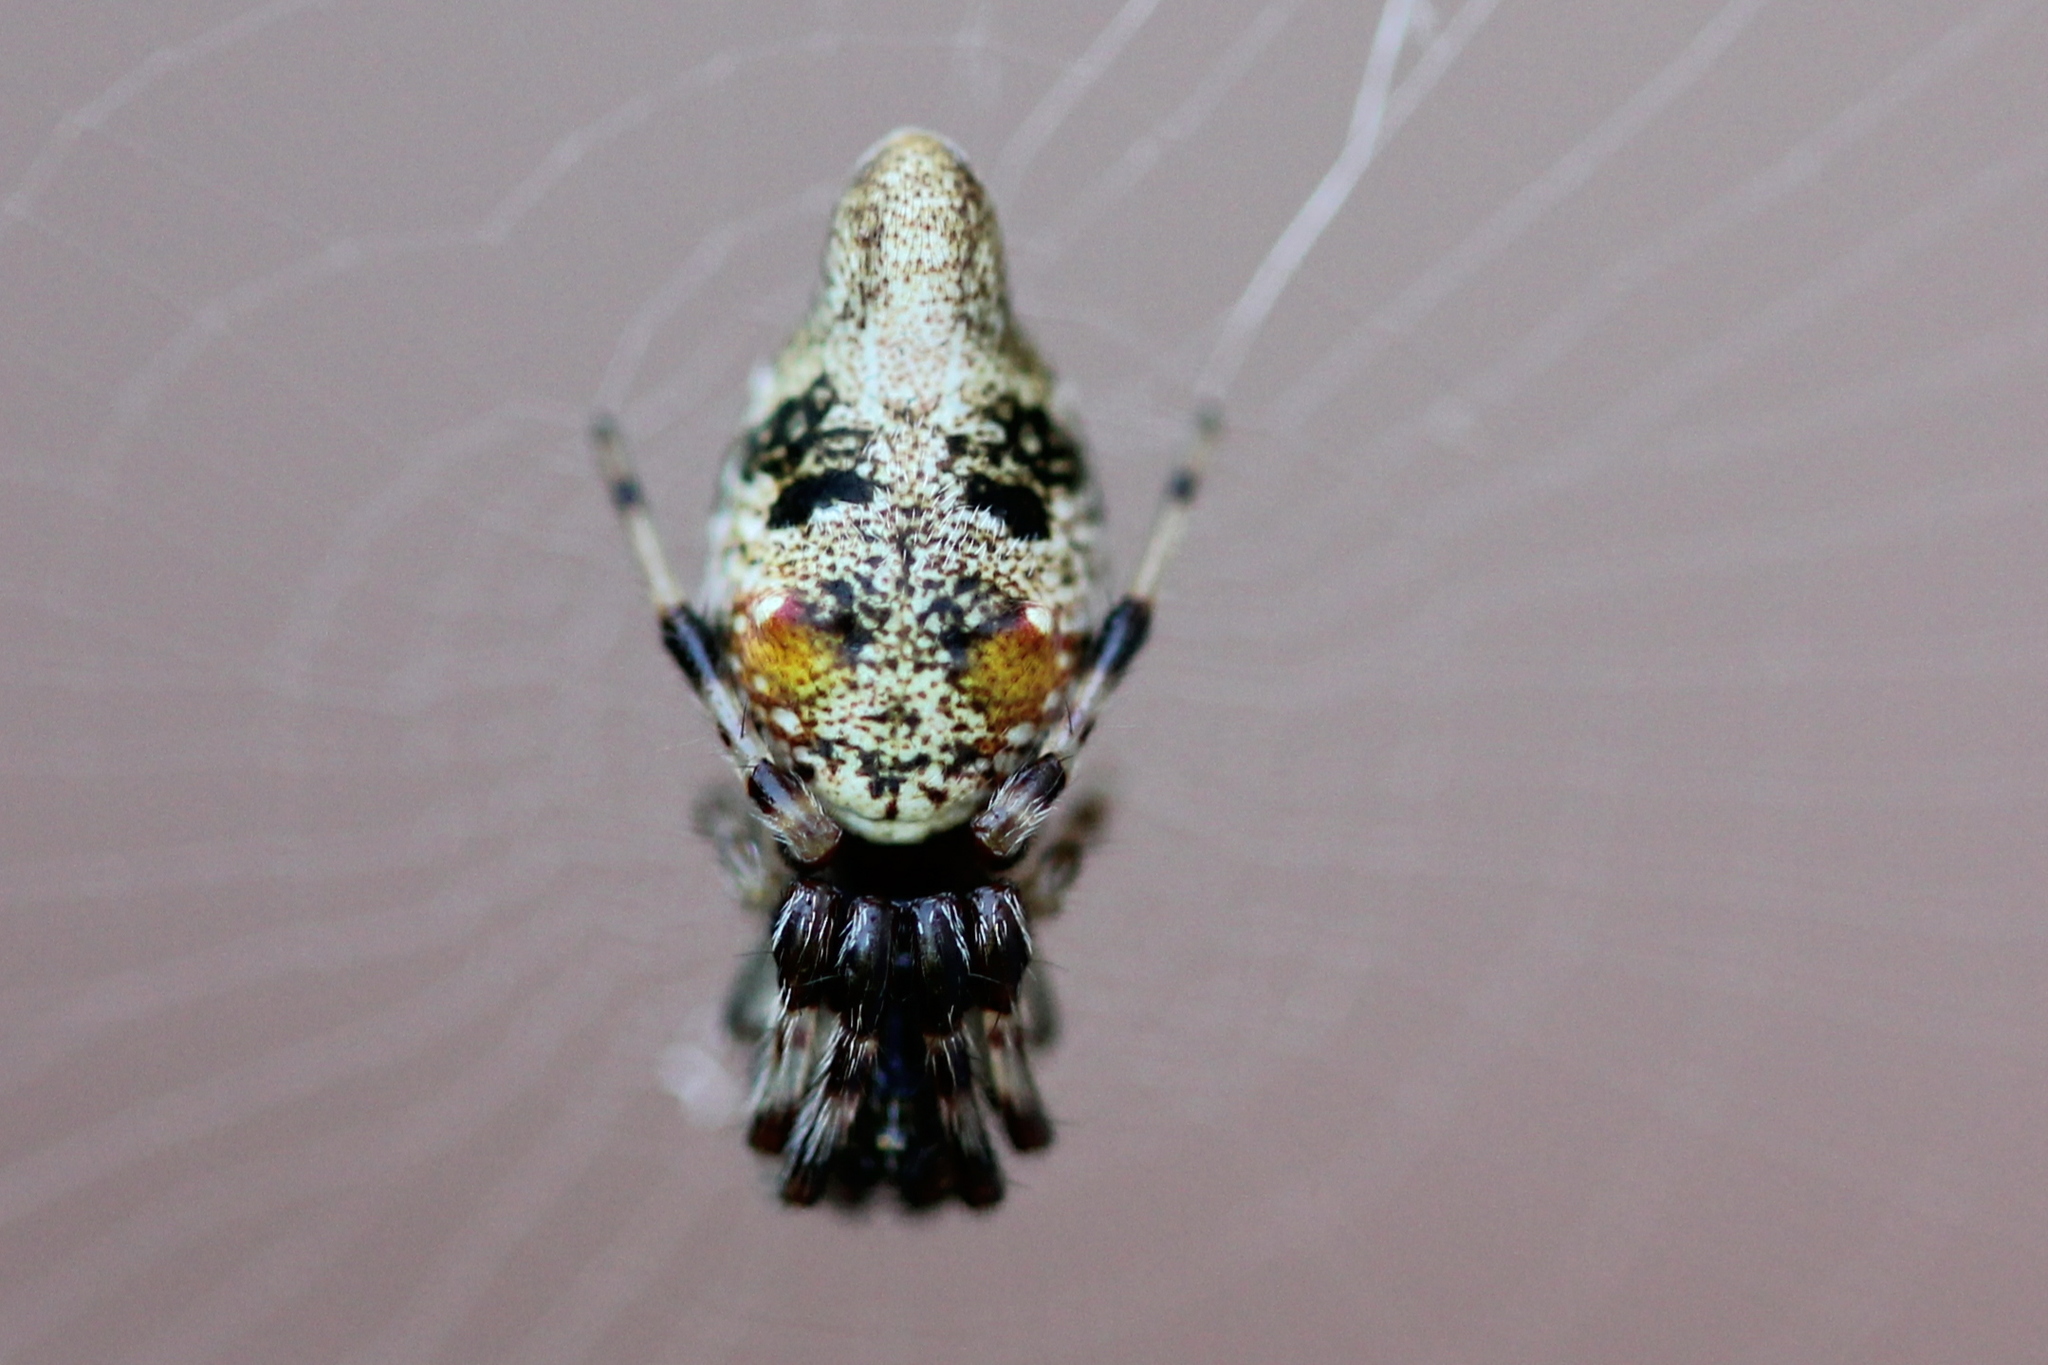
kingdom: Animalia
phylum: Arthropoda
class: Arachnida
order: Araneae
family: Araneidae
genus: Cyclosa
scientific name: Cyclosa turbinata
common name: Orb weavers
